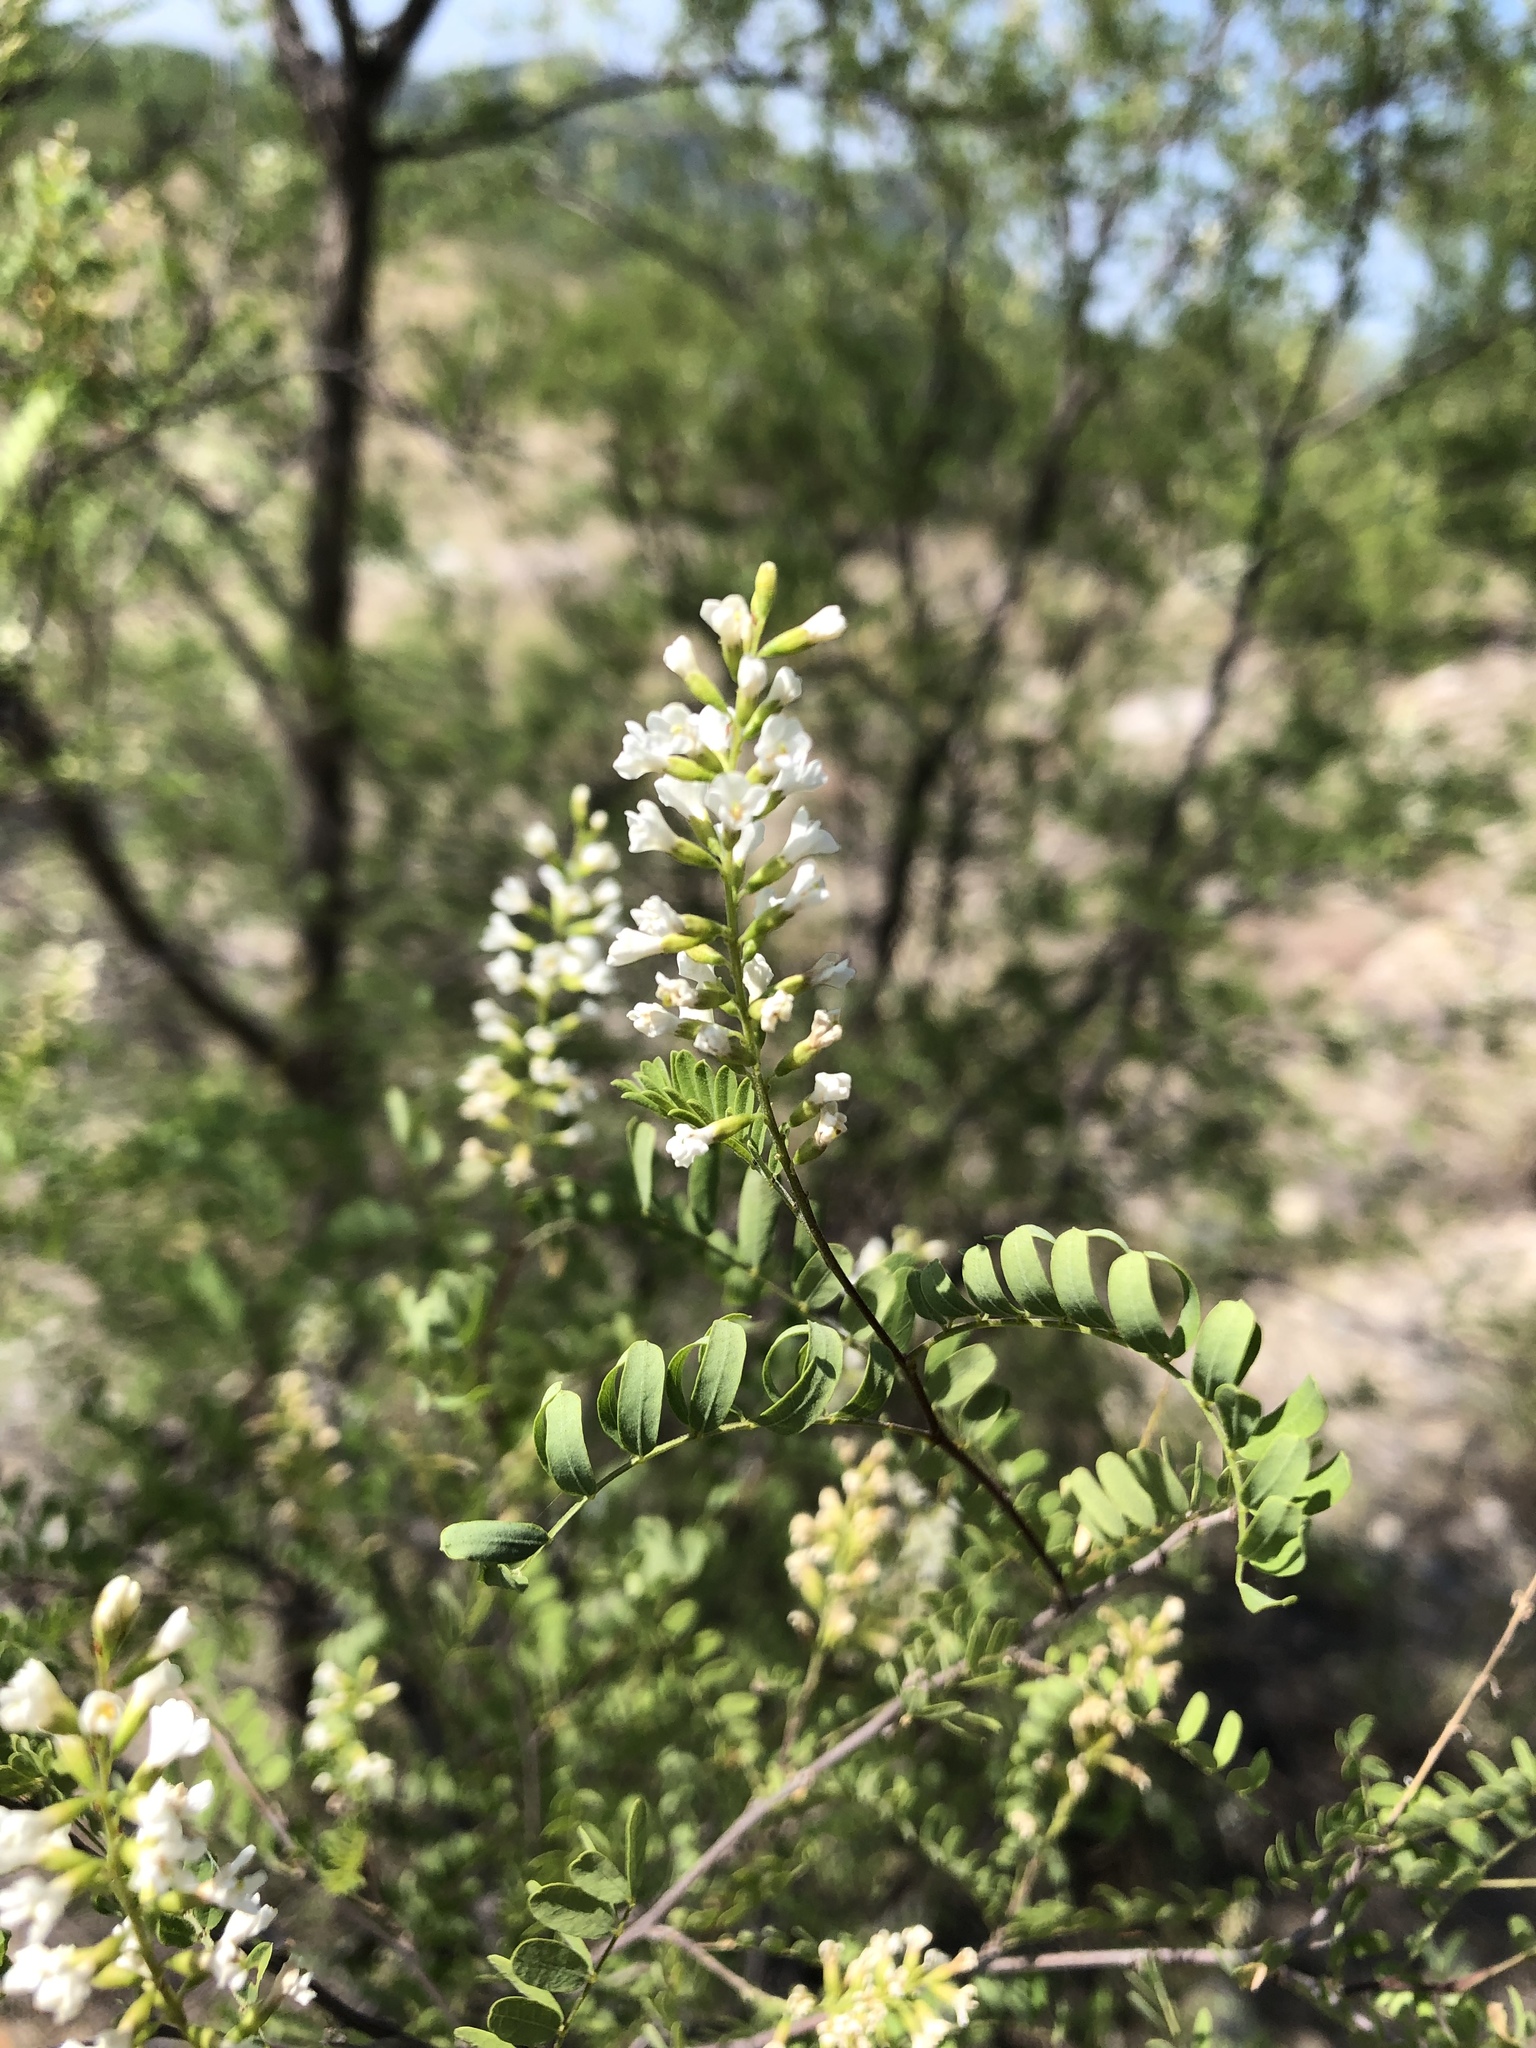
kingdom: Plantae
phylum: Tracheophyta
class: Magnoliopsida
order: Fabales
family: Fabaceae
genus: Eysenhardtia
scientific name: Eysenhardtia orthocarpa
